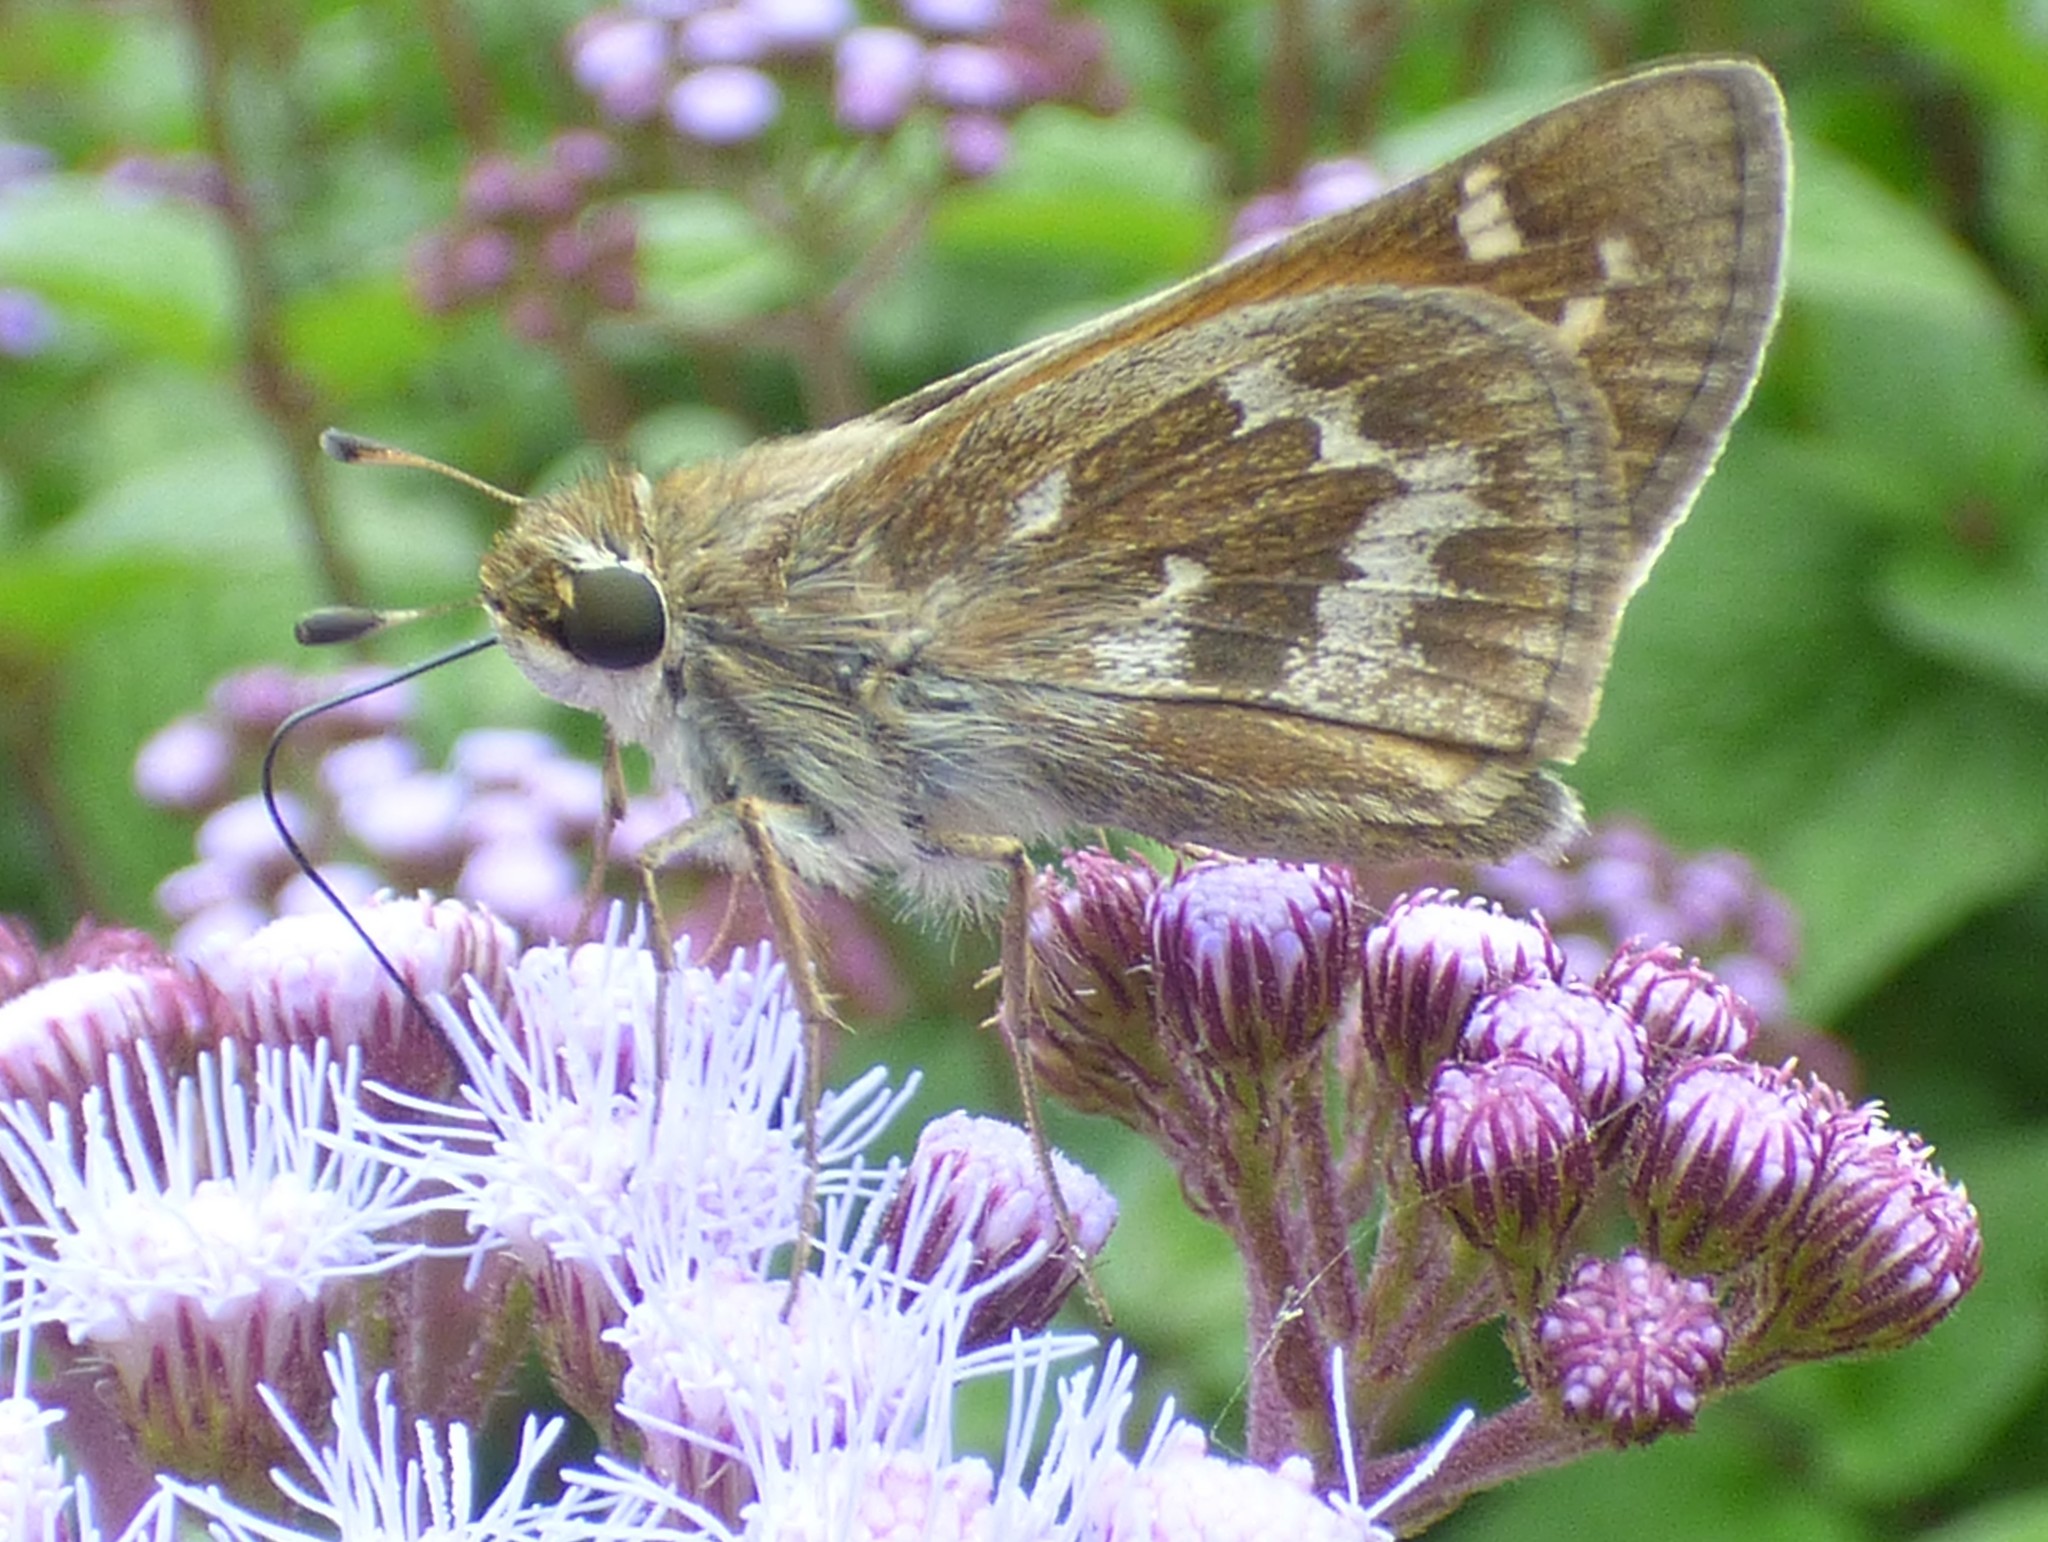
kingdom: Animalia
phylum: Arthropoda
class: Insecta
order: Lepidoptera
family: Hesperiidae
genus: Atalopedes
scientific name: Atalopedes
